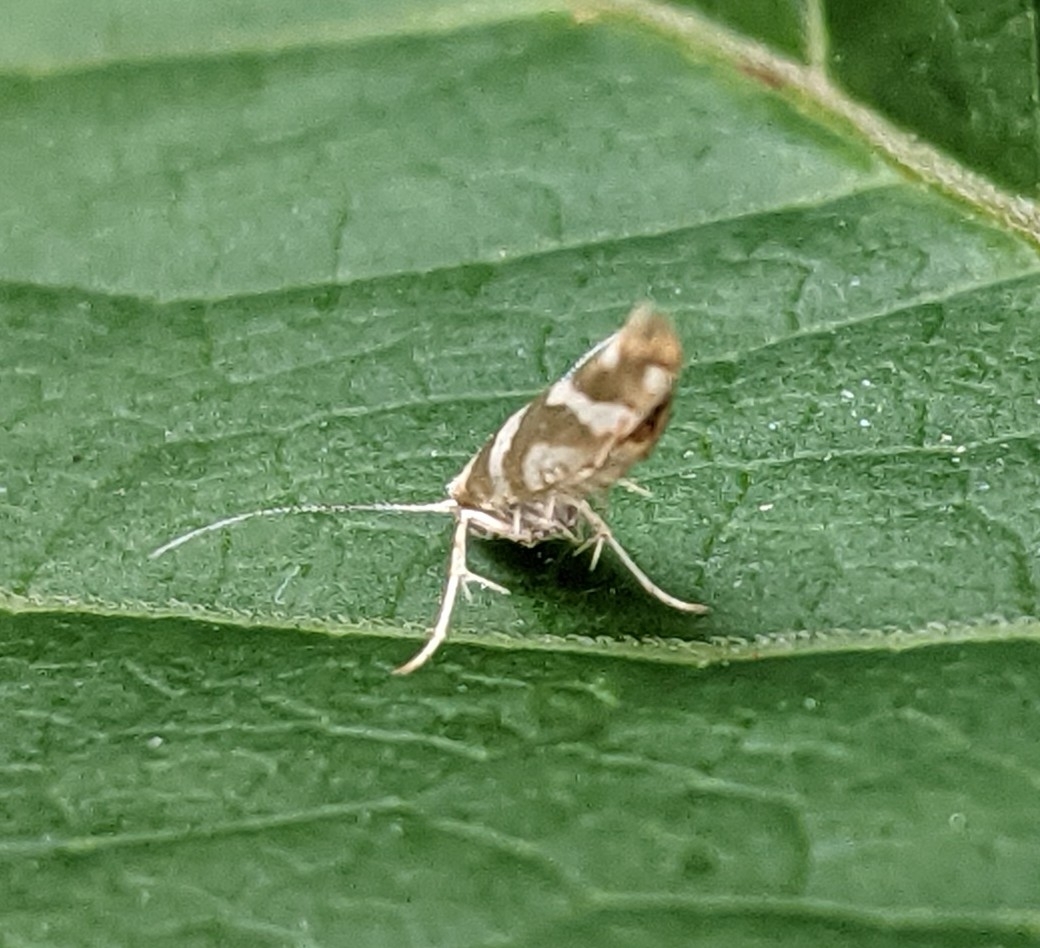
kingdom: Animalia
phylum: Arthropoda
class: Insecta
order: Lepidoptera
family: Argyresthiidae
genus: Argyresthia
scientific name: Argyresthia goedartella
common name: Golden argent
